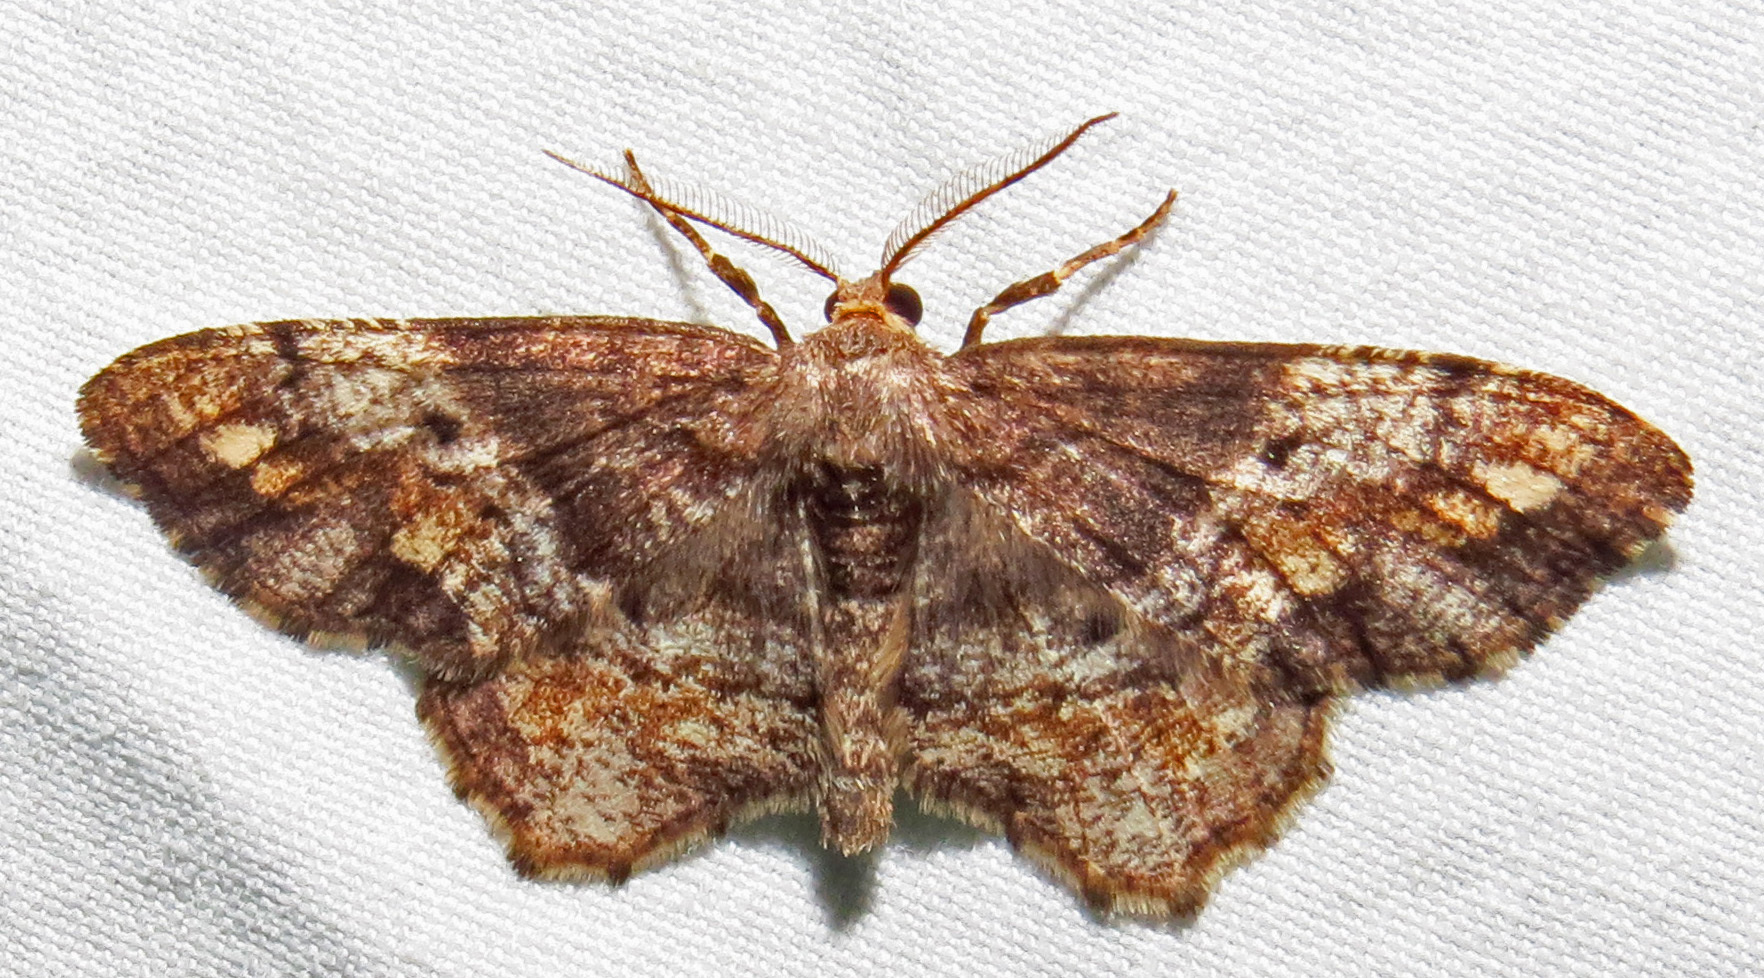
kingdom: Animalia
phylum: Arthropoda
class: Insecta
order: Lepidoptera
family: Geometridae
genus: Hypagyrtis
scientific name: Hypagyrtis
